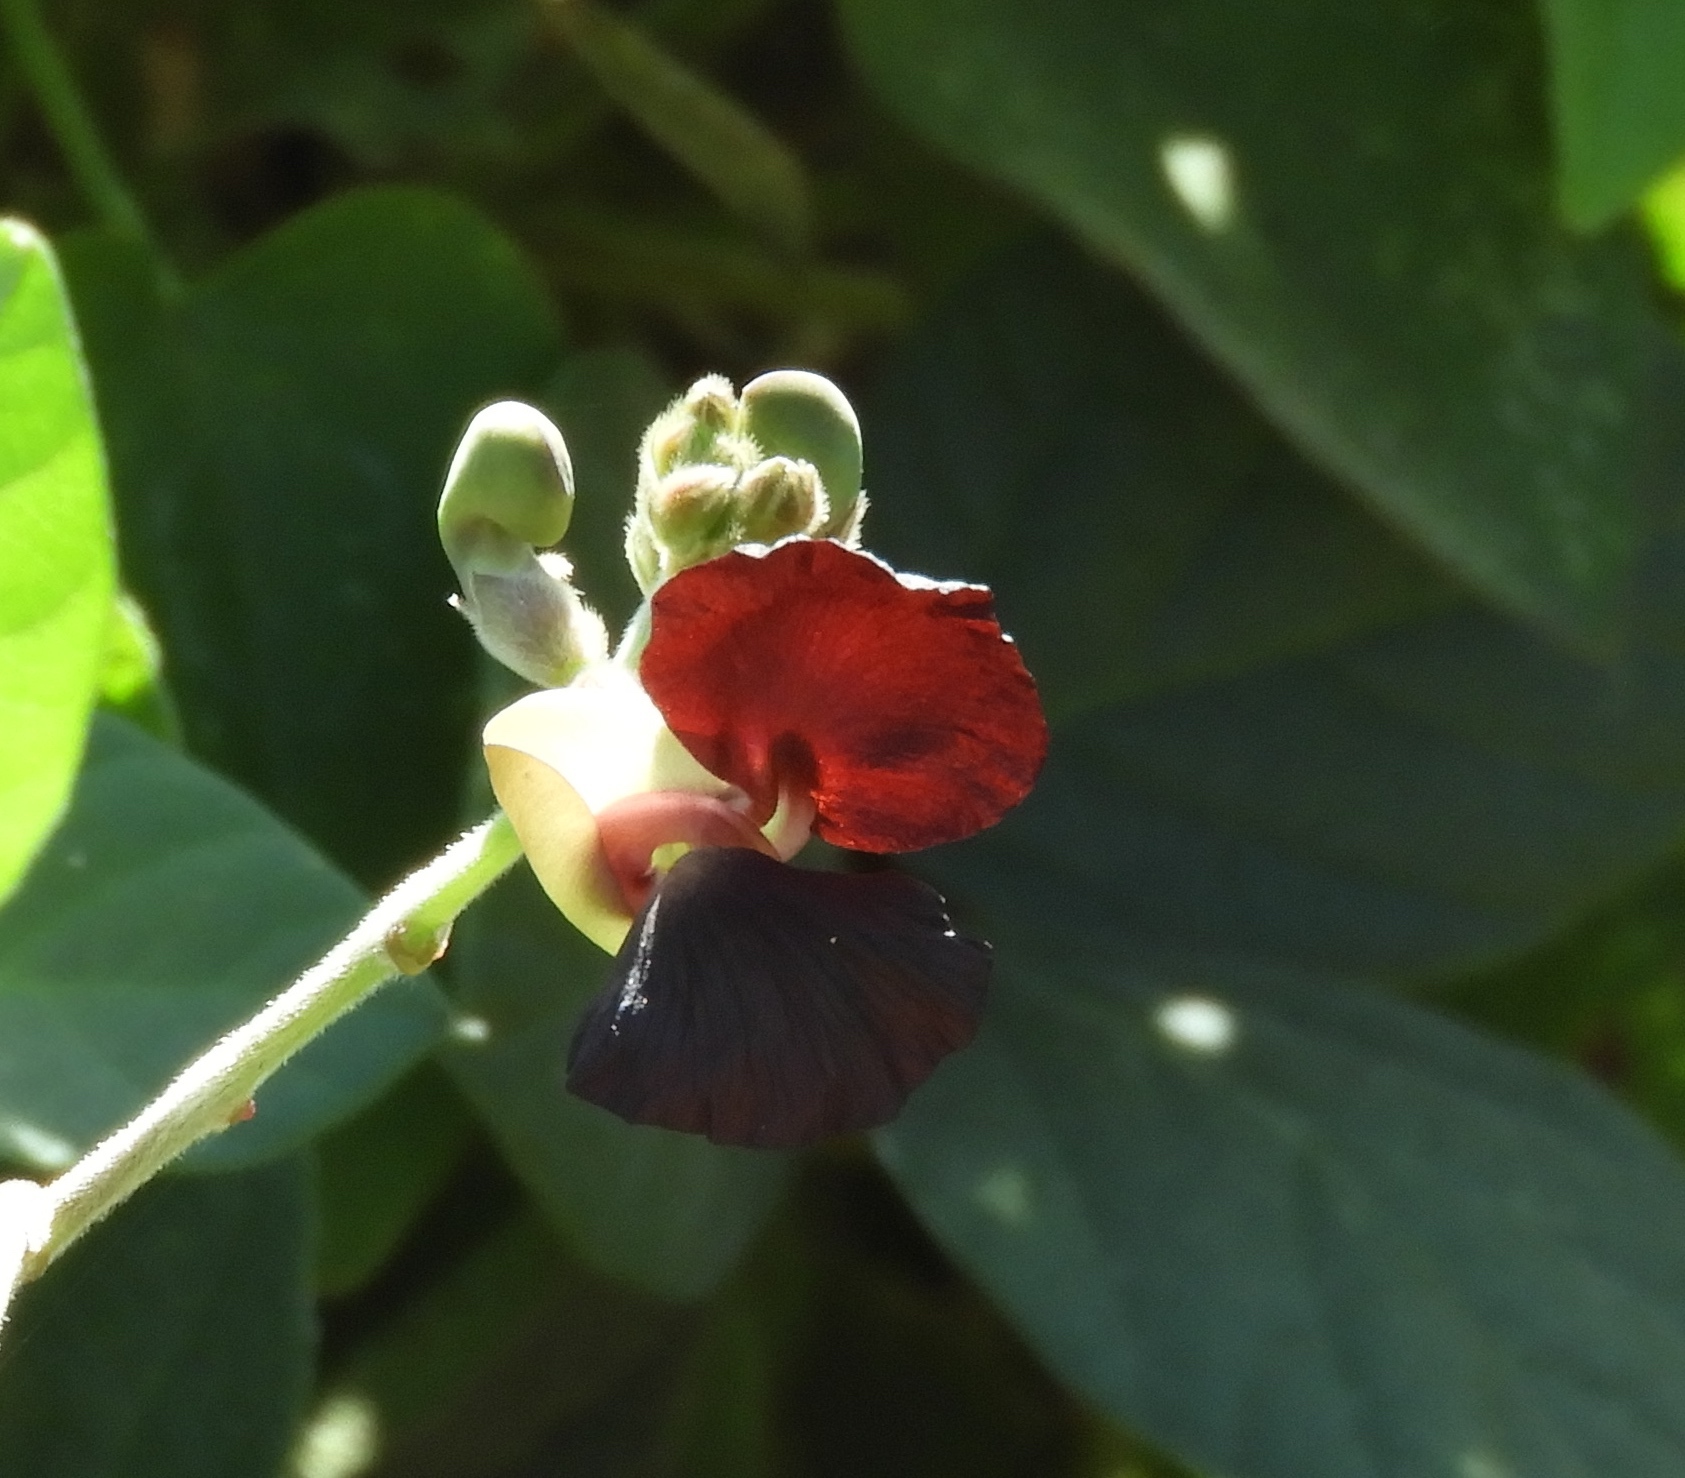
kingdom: Plantae
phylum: Tracheophyta
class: Magnoliopsida
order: Fabales
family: Fabaceae
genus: Macroptilium
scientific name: Macroptilium atropurpureum
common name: Purple bushbean
